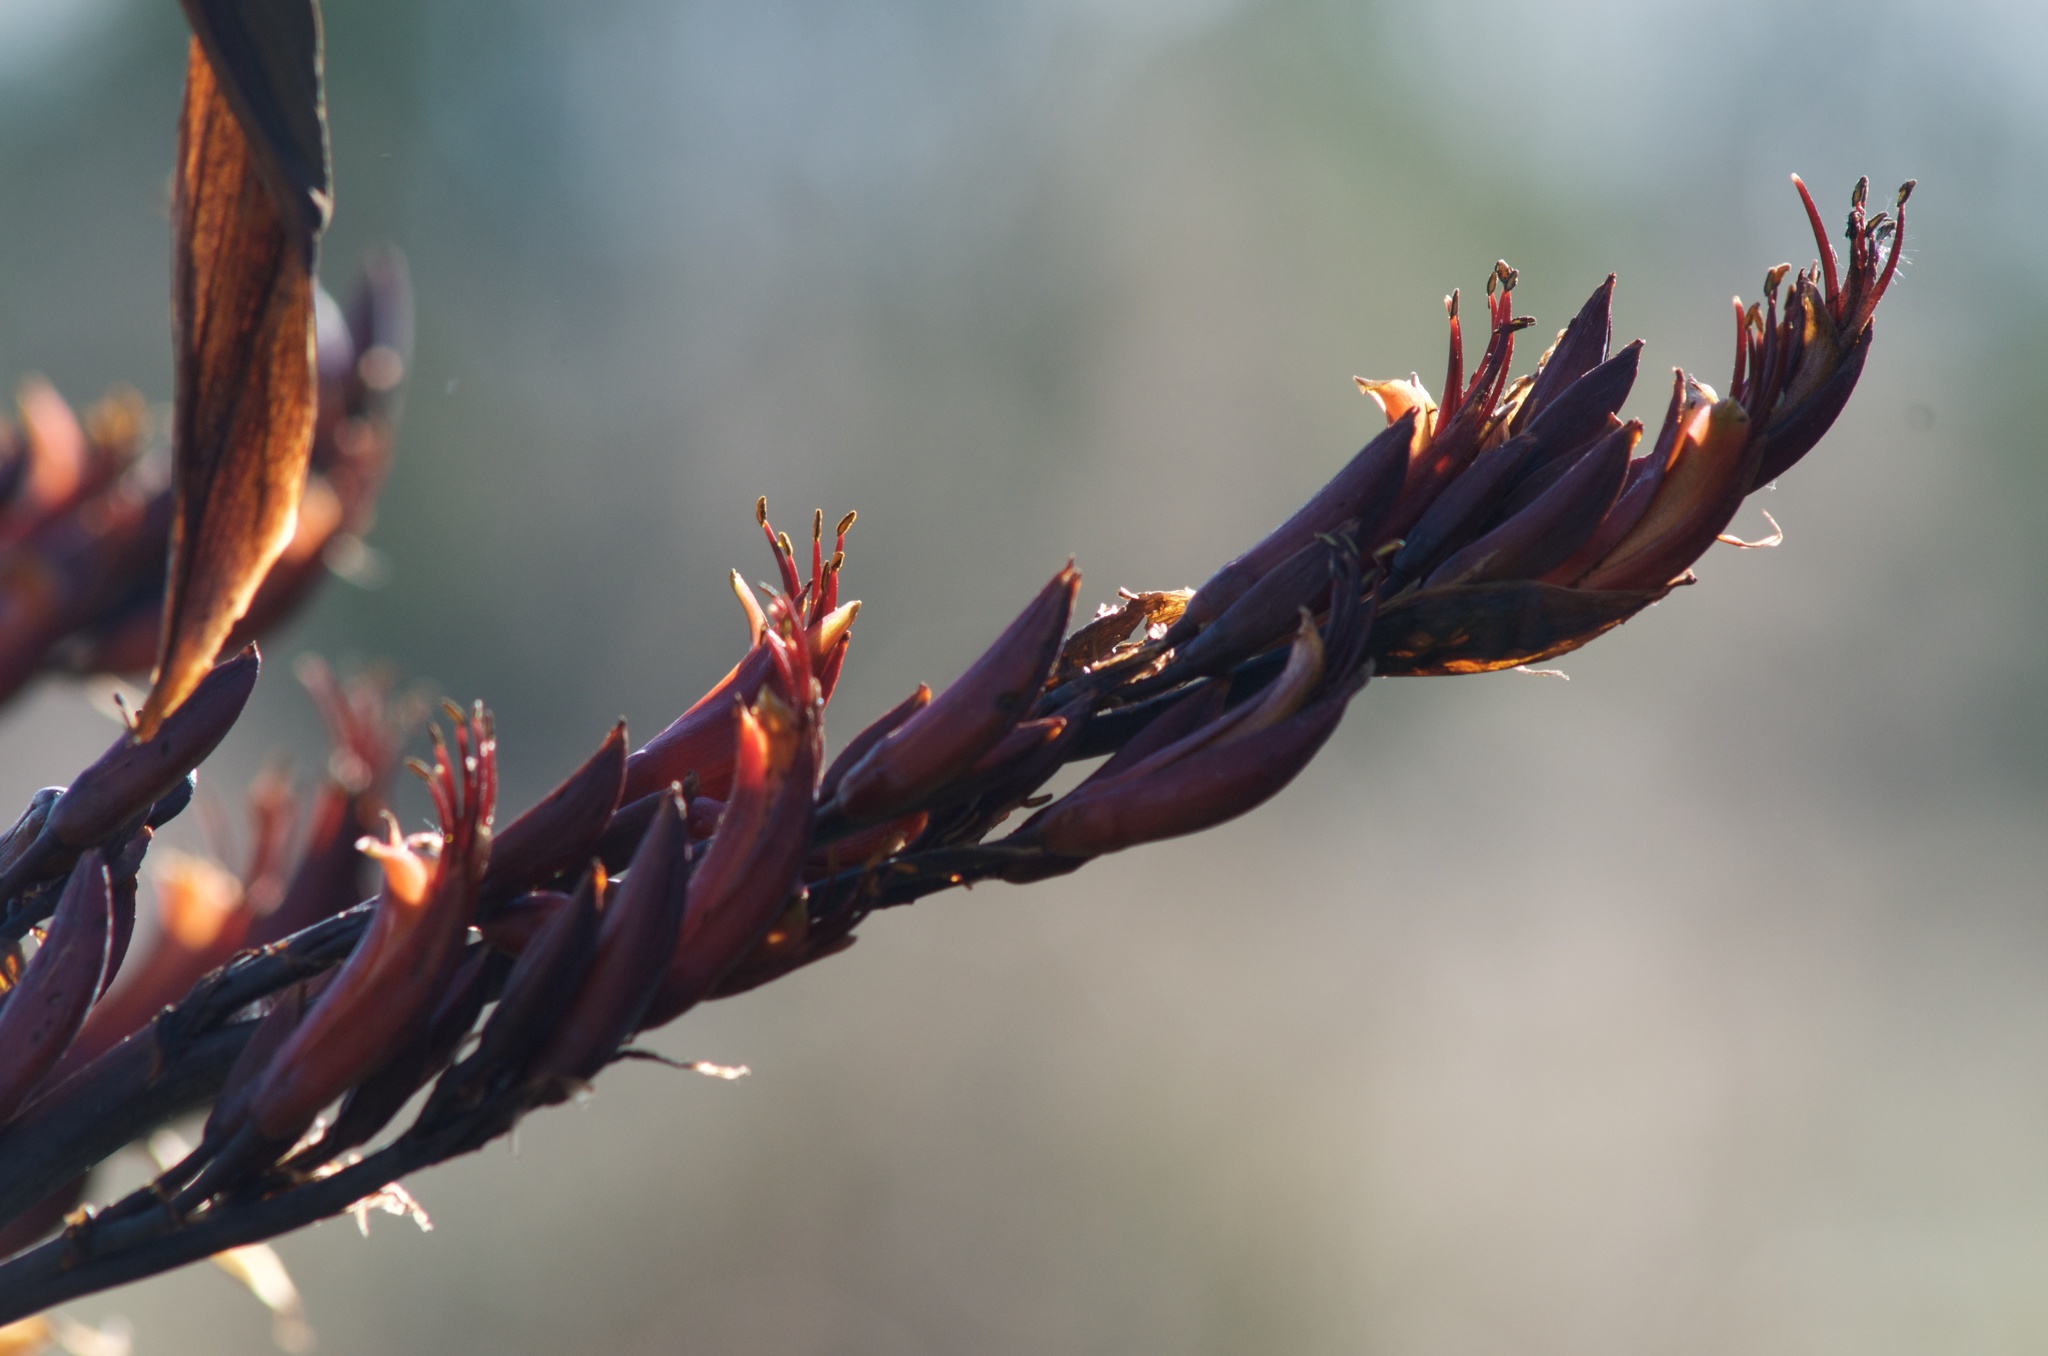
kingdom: Plantae
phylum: Tracheophyta
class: Liliopsida
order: Asparagales
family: Asphodelaceae
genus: Phormium
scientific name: Phormium tenax
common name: New zealand flax
